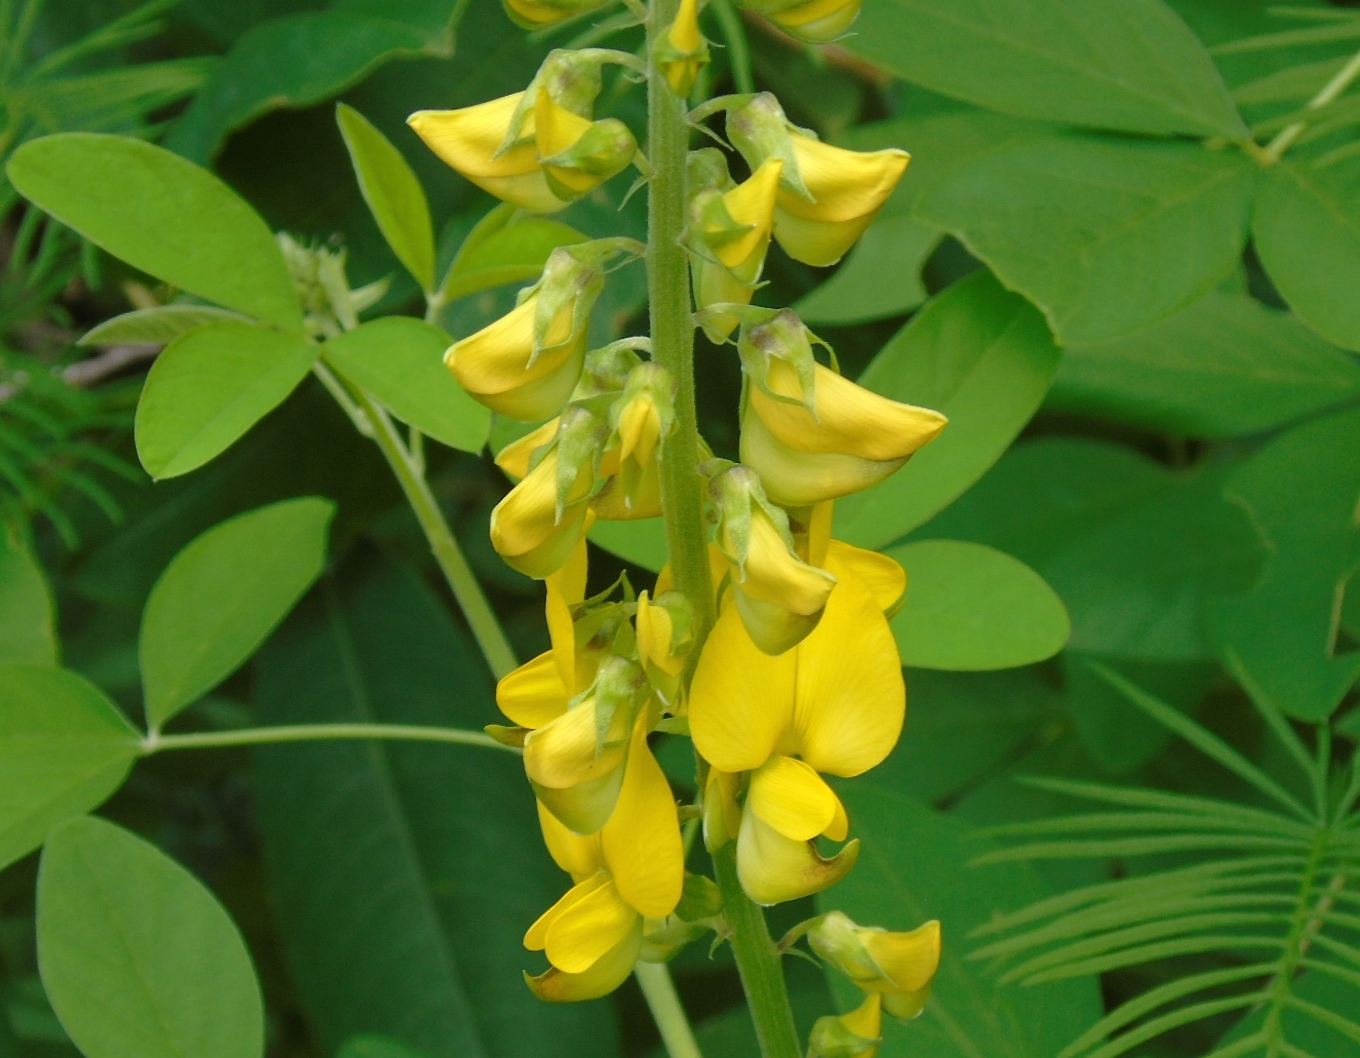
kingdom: Plantae
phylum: Tracheophyta
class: Magnoliopsida
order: Fabales
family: Fabaceae
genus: Crotalaria
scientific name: Crotalaria
